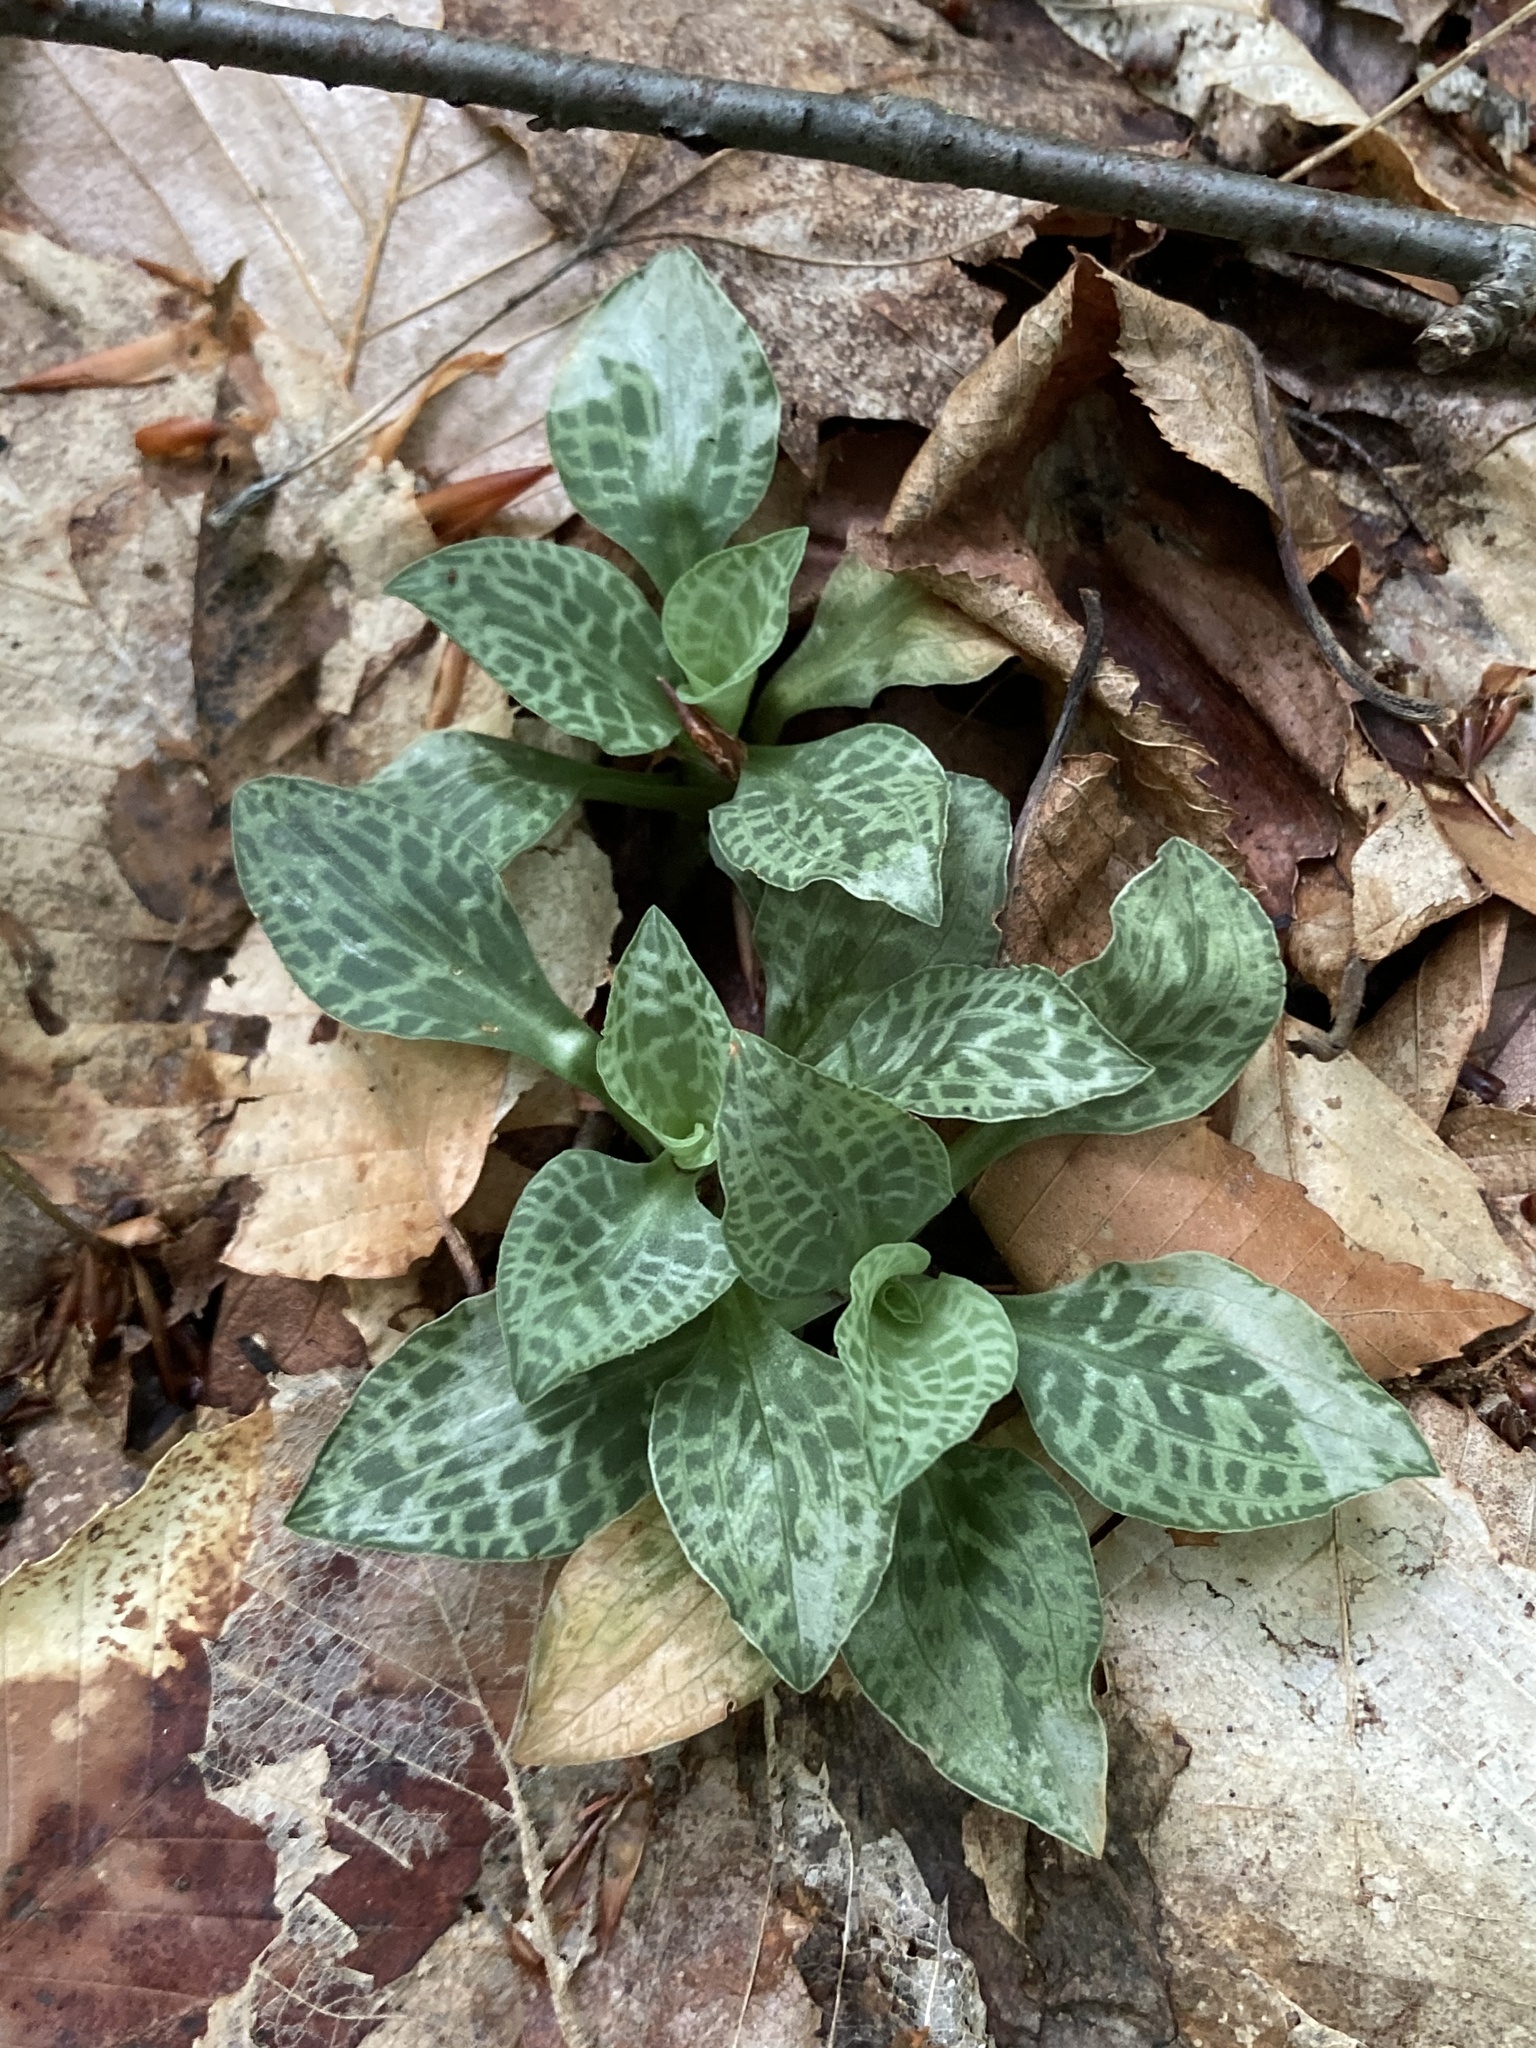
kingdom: Plantae
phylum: Tracheophyta
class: Liliopsida
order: Asparagales
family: Orchidaceae
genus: Goodyera
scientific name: Goodyera tesselata
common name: Checkered rattlesnake-plantain
